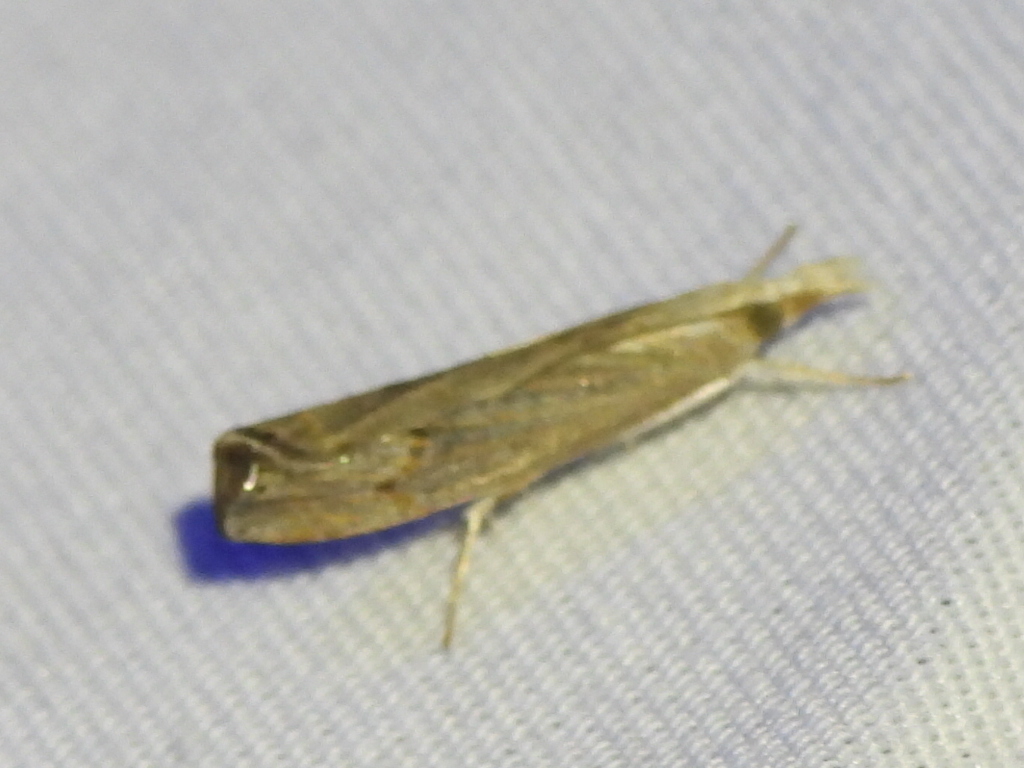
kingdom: Animalia
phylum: Arthropoda
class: Insecta
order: Lepidoptera
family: Crambidae
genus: Parapediasia
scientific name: Parapediasia teterellus
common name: Bluegrass webworm moth
